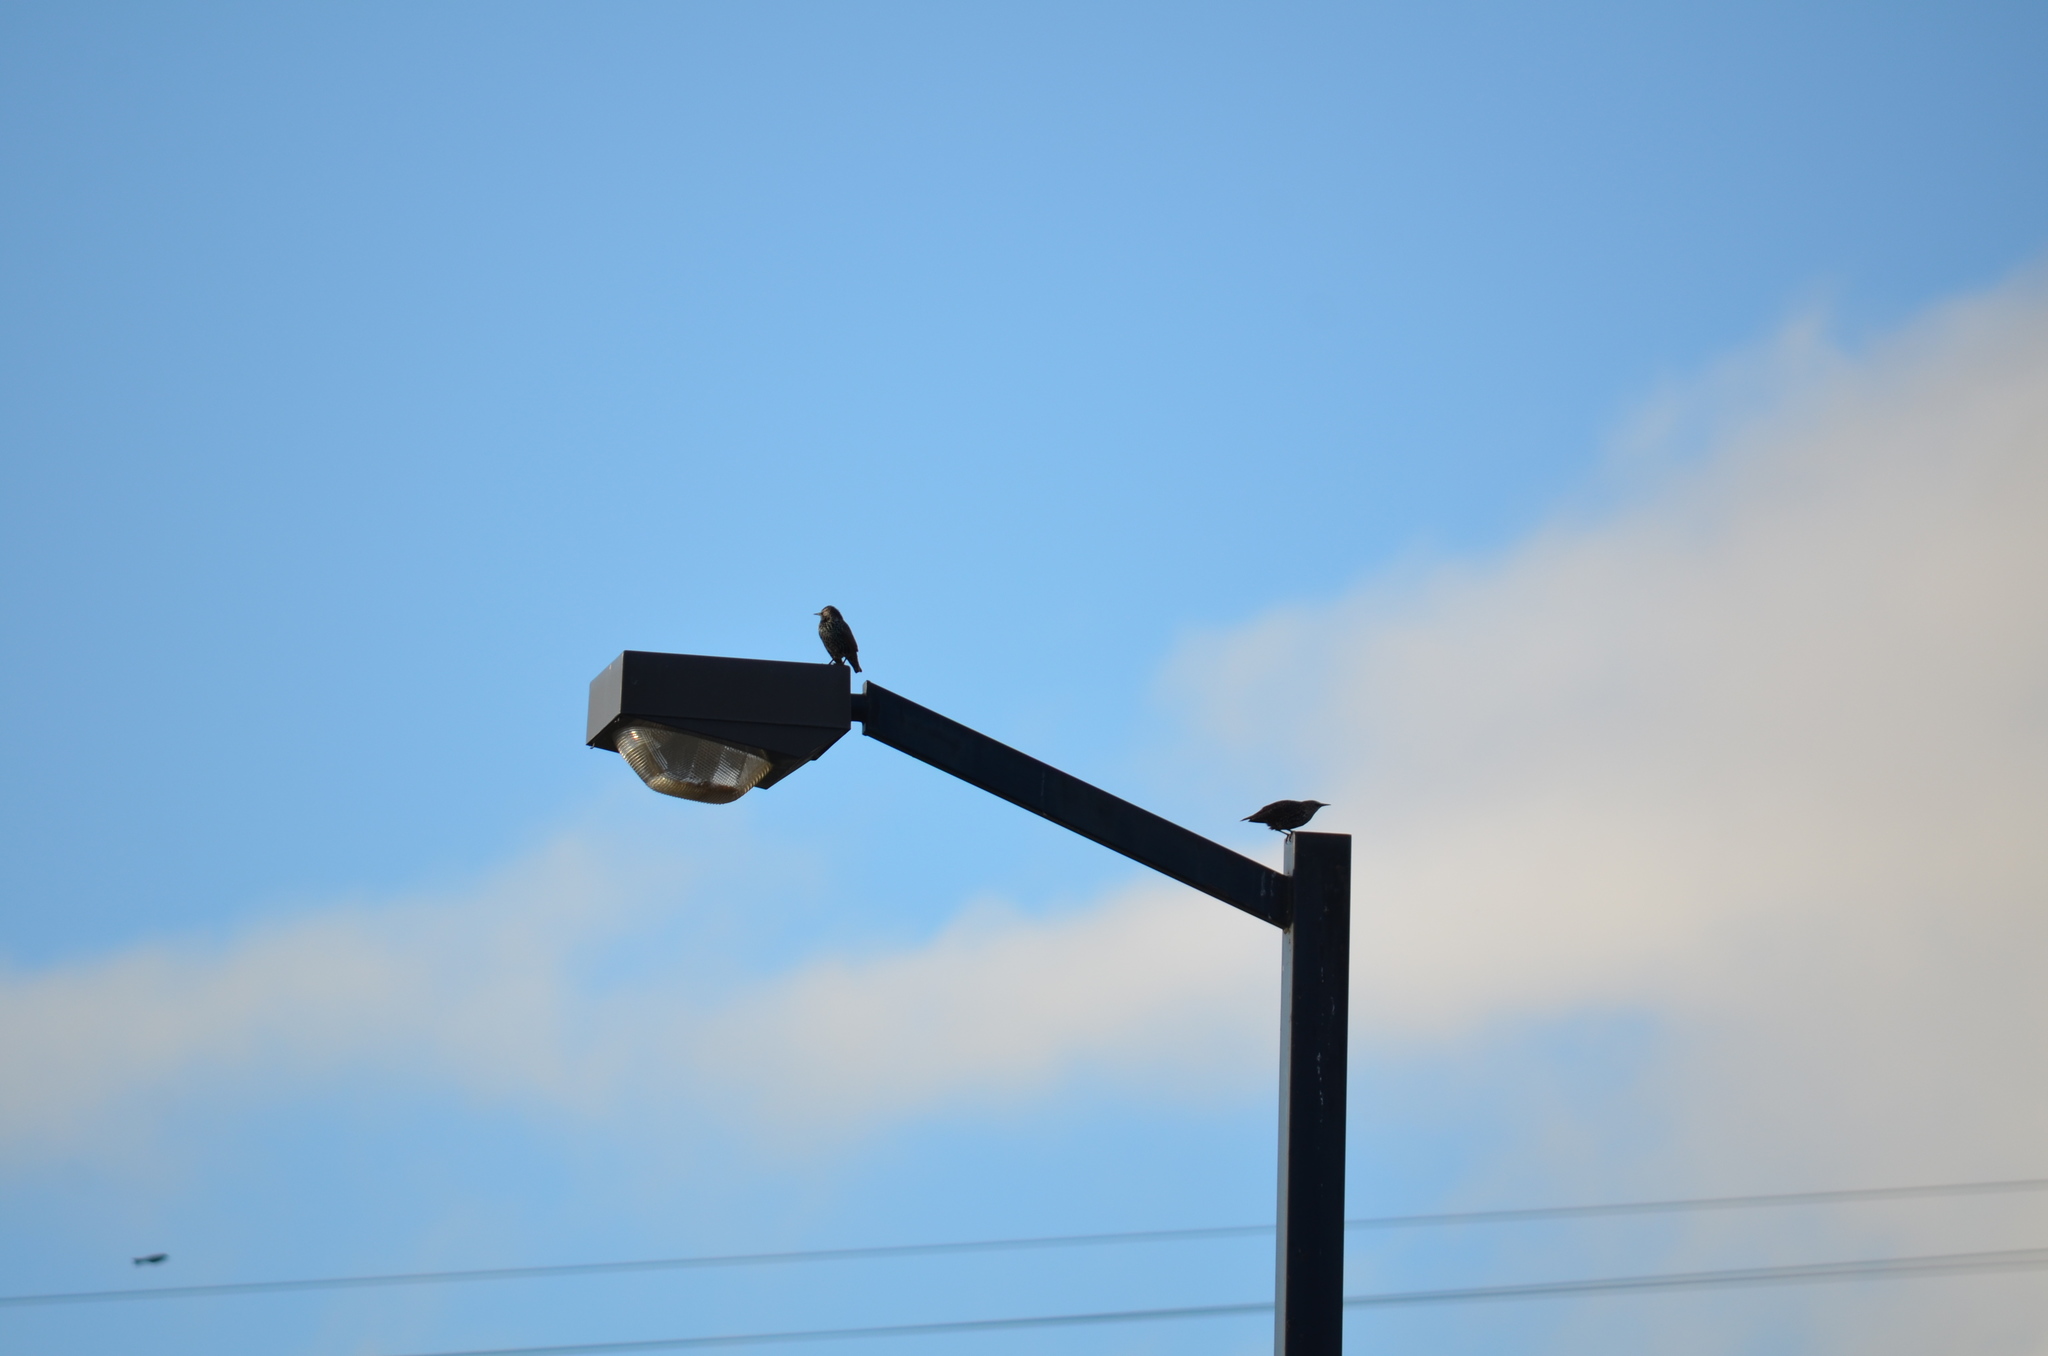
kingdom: Animalia
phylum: Chordata
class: Aves
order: Passeriformes
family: Sturnidae
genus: Sturnus
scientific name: Sturnus vulgaris
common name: Common starling
